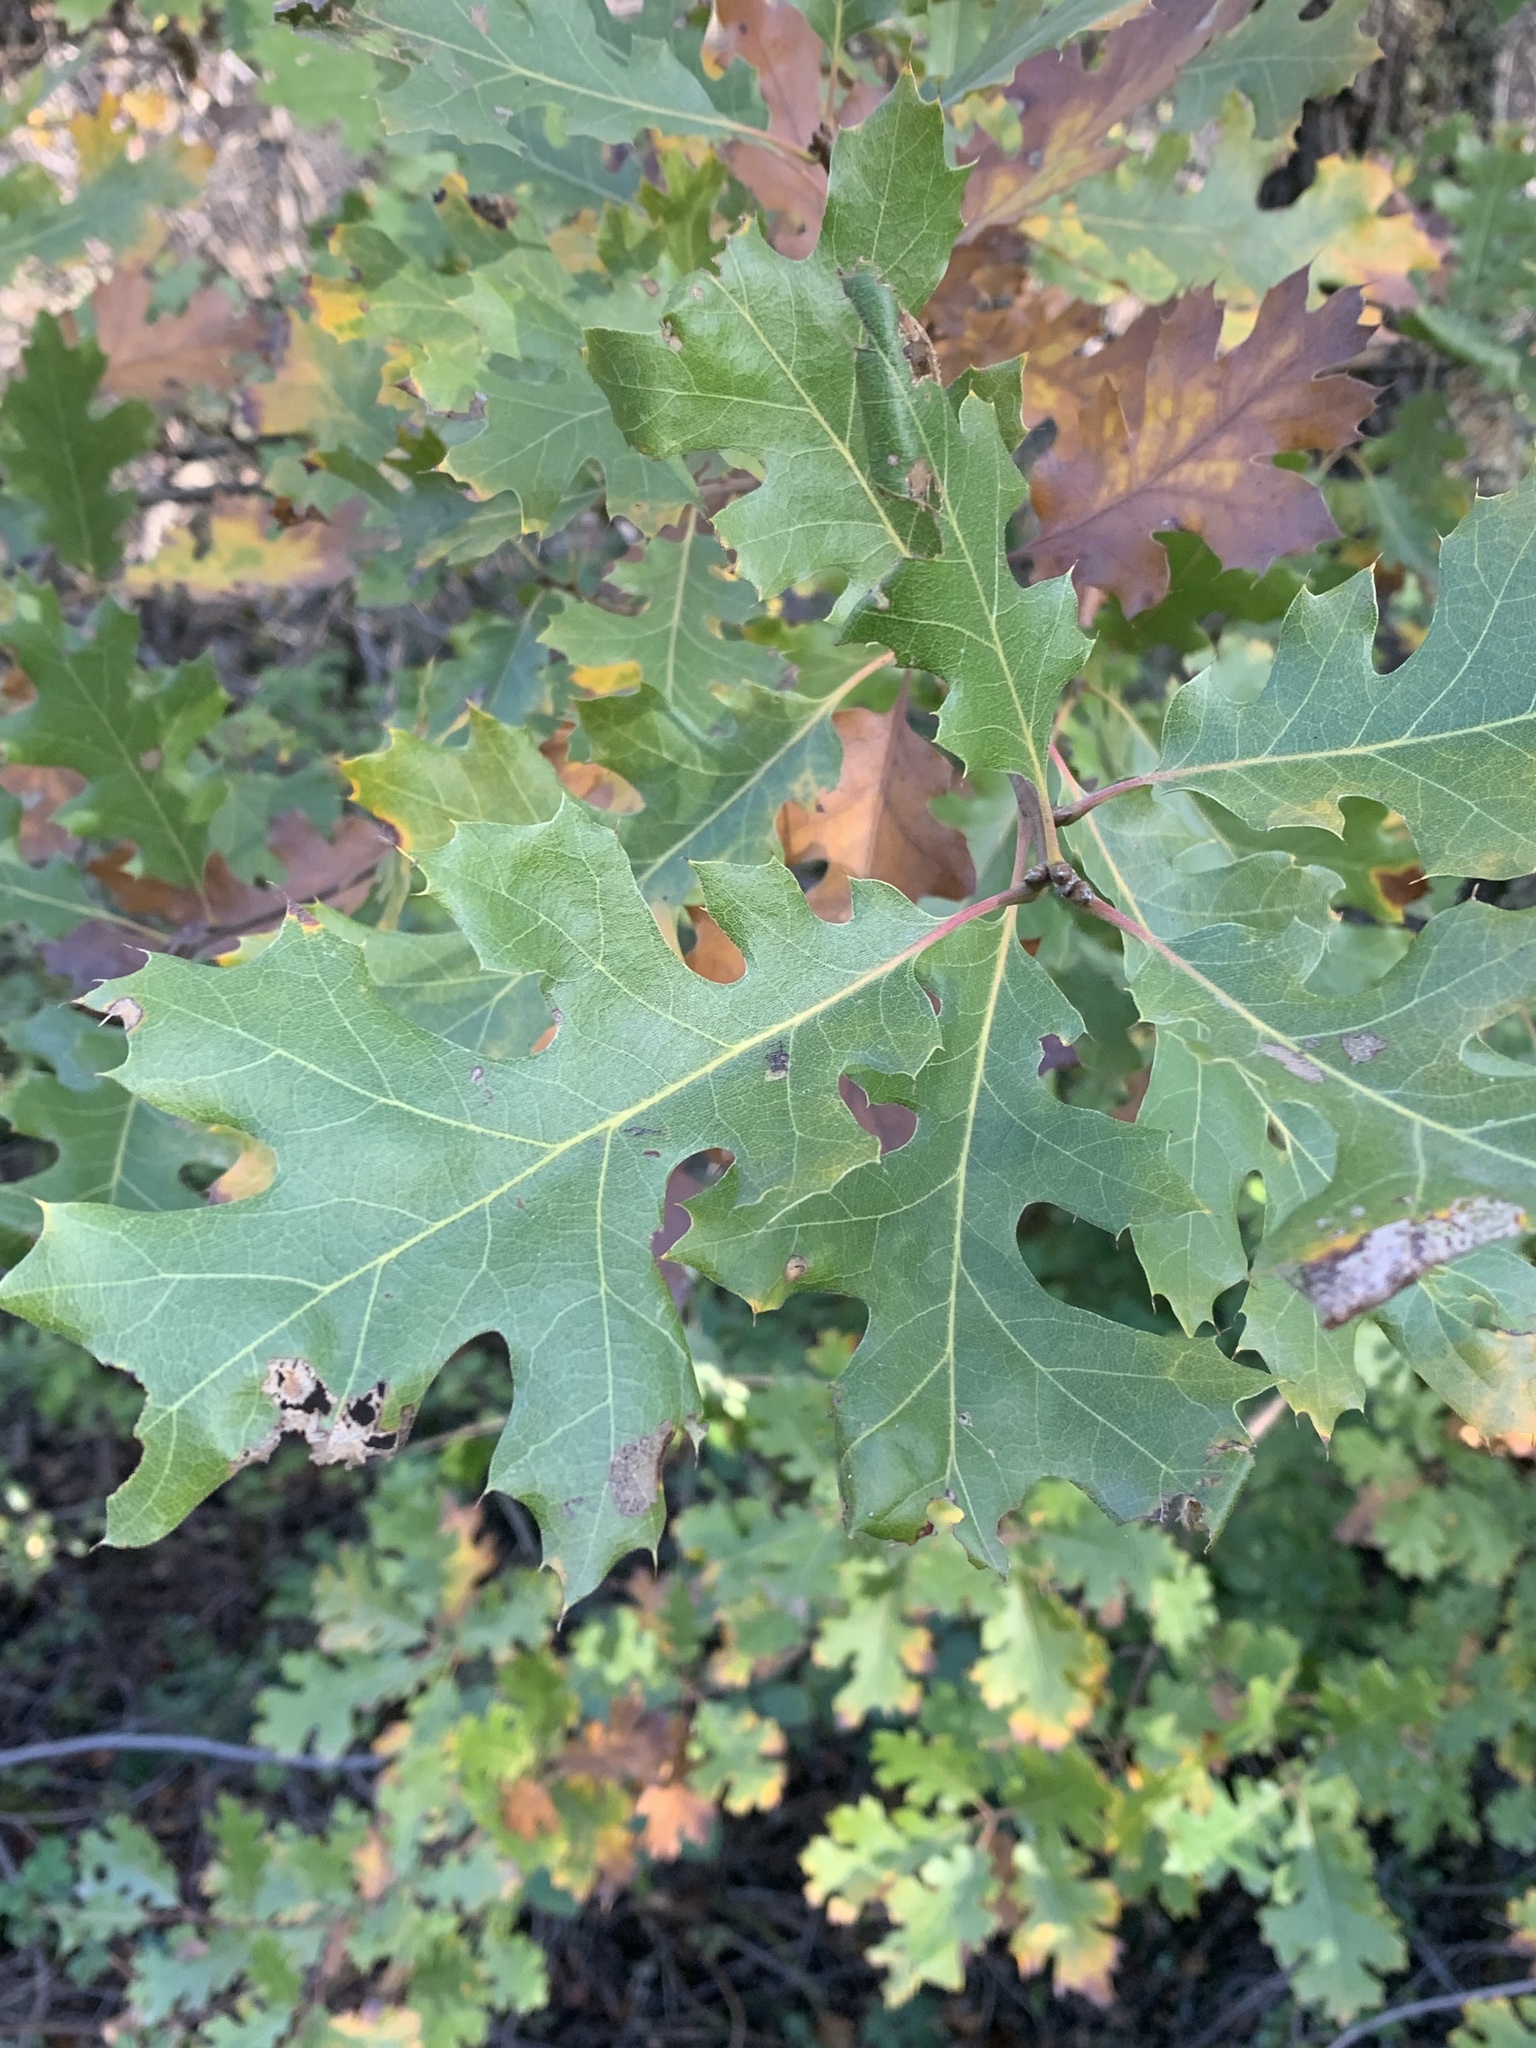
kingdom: Plantae
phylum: Tracheophyta
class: Magnoliopsida
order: Fagales
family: Fagaceae
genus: Quercus
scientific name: Quercus kelloggii
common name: California black oak
